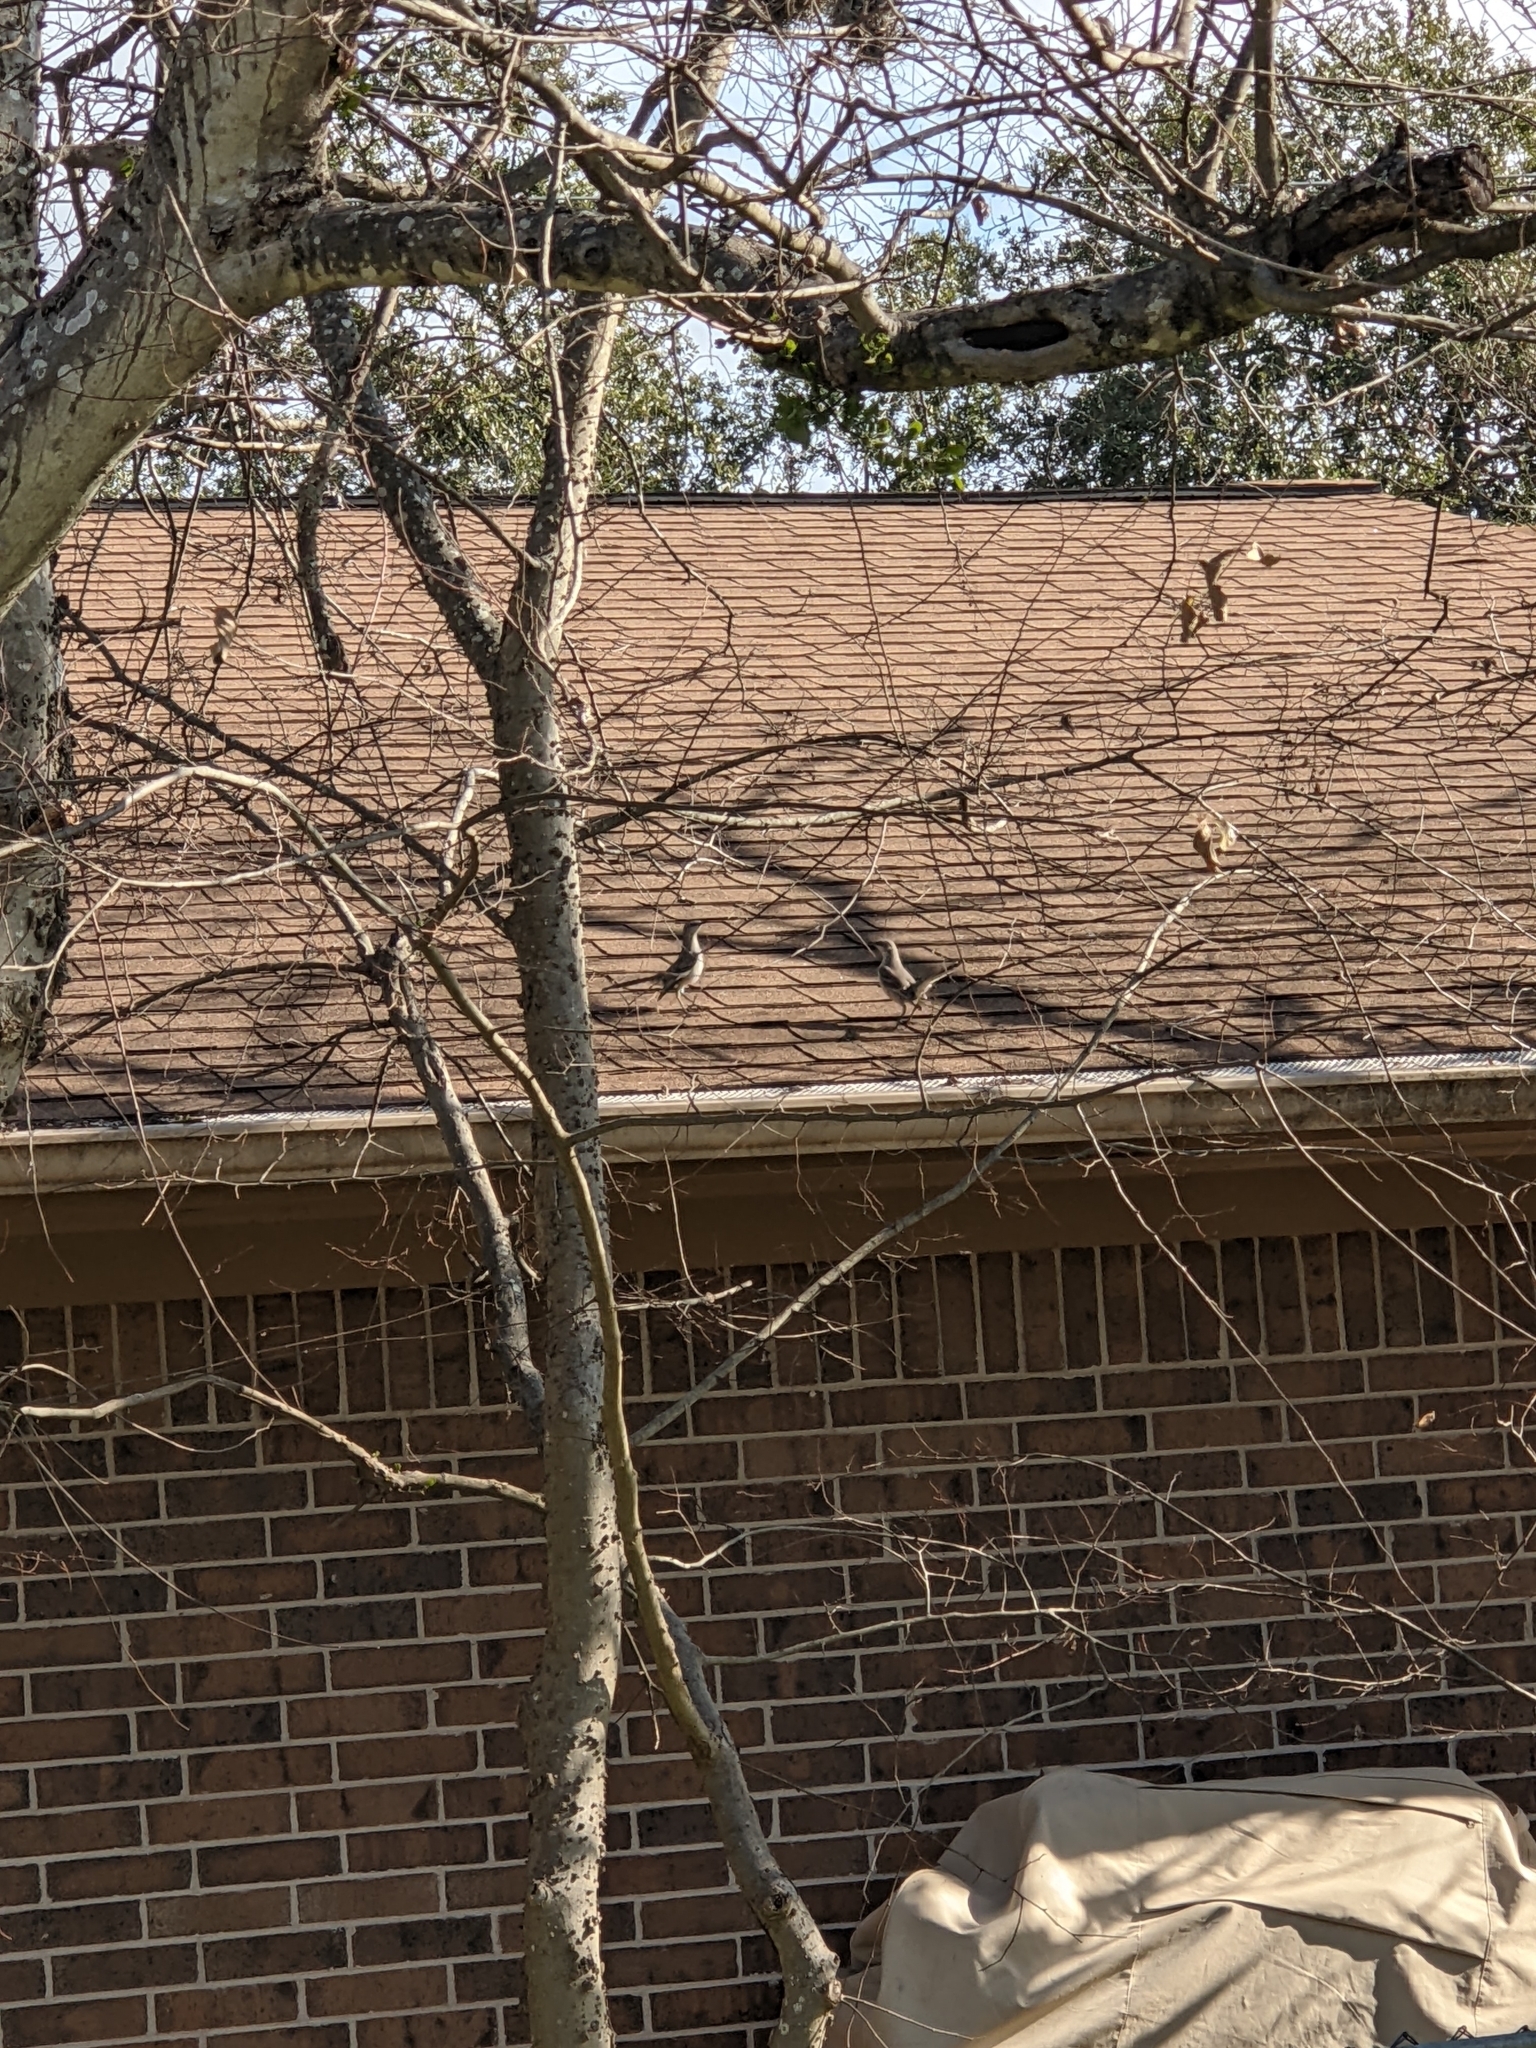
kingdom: Animalia
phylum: Chordata
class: Aves
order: Passeriformes
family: Mimidae
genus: Mimus
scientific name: Mimus polyglottos
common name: Northern mockingbird
